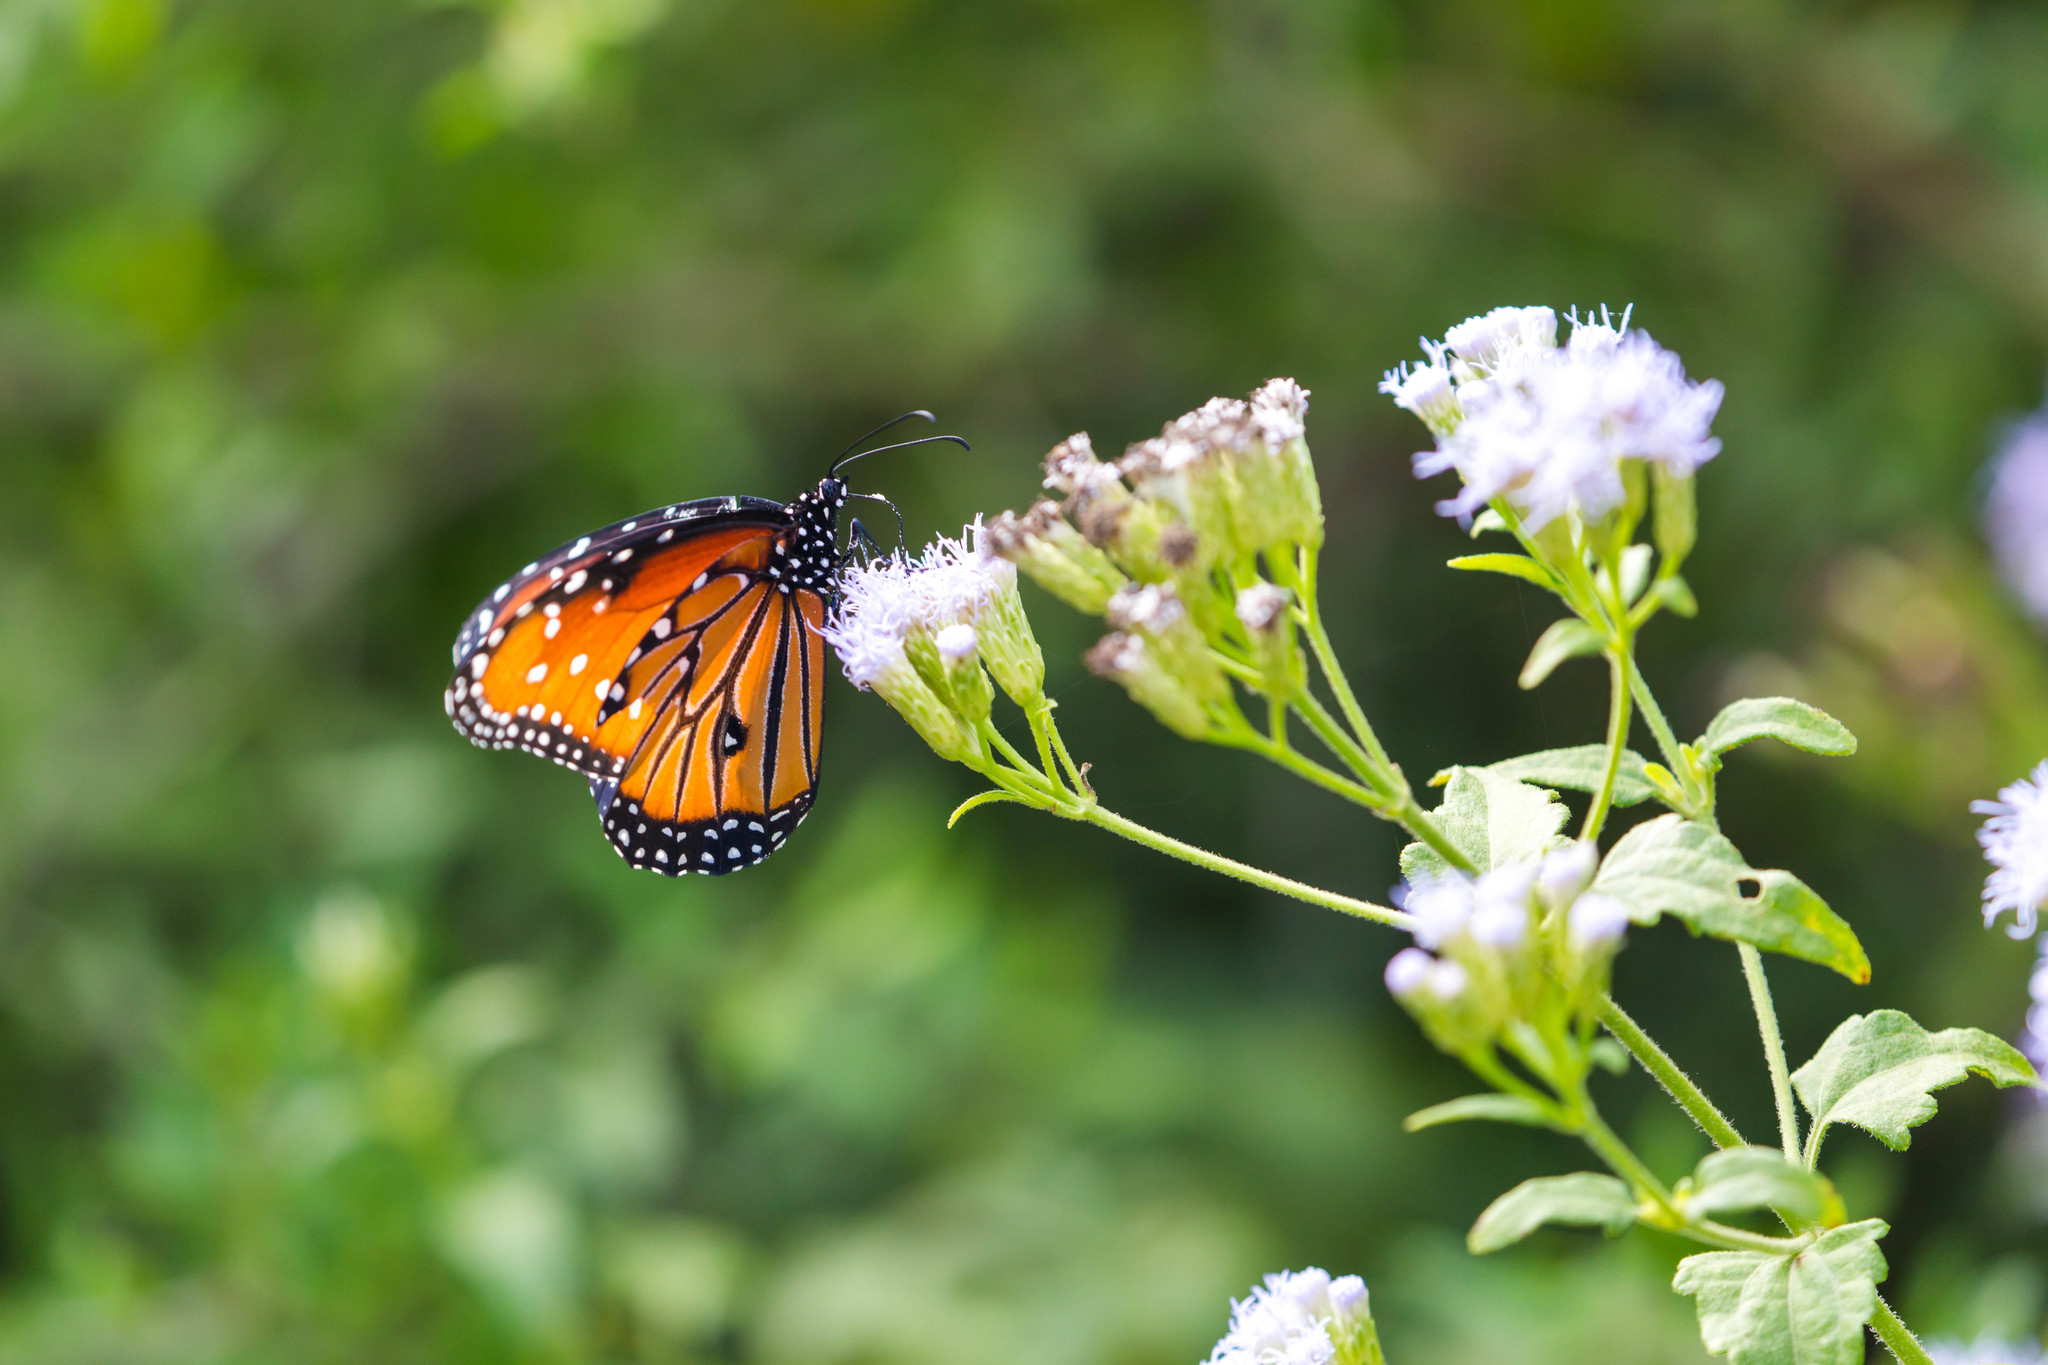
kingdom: Animalia
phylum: Arthropoda
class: Insecta
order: Lepidoptera
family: Nymphalidae
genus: Danaus
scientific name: Danaus gilippus
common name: Queen
